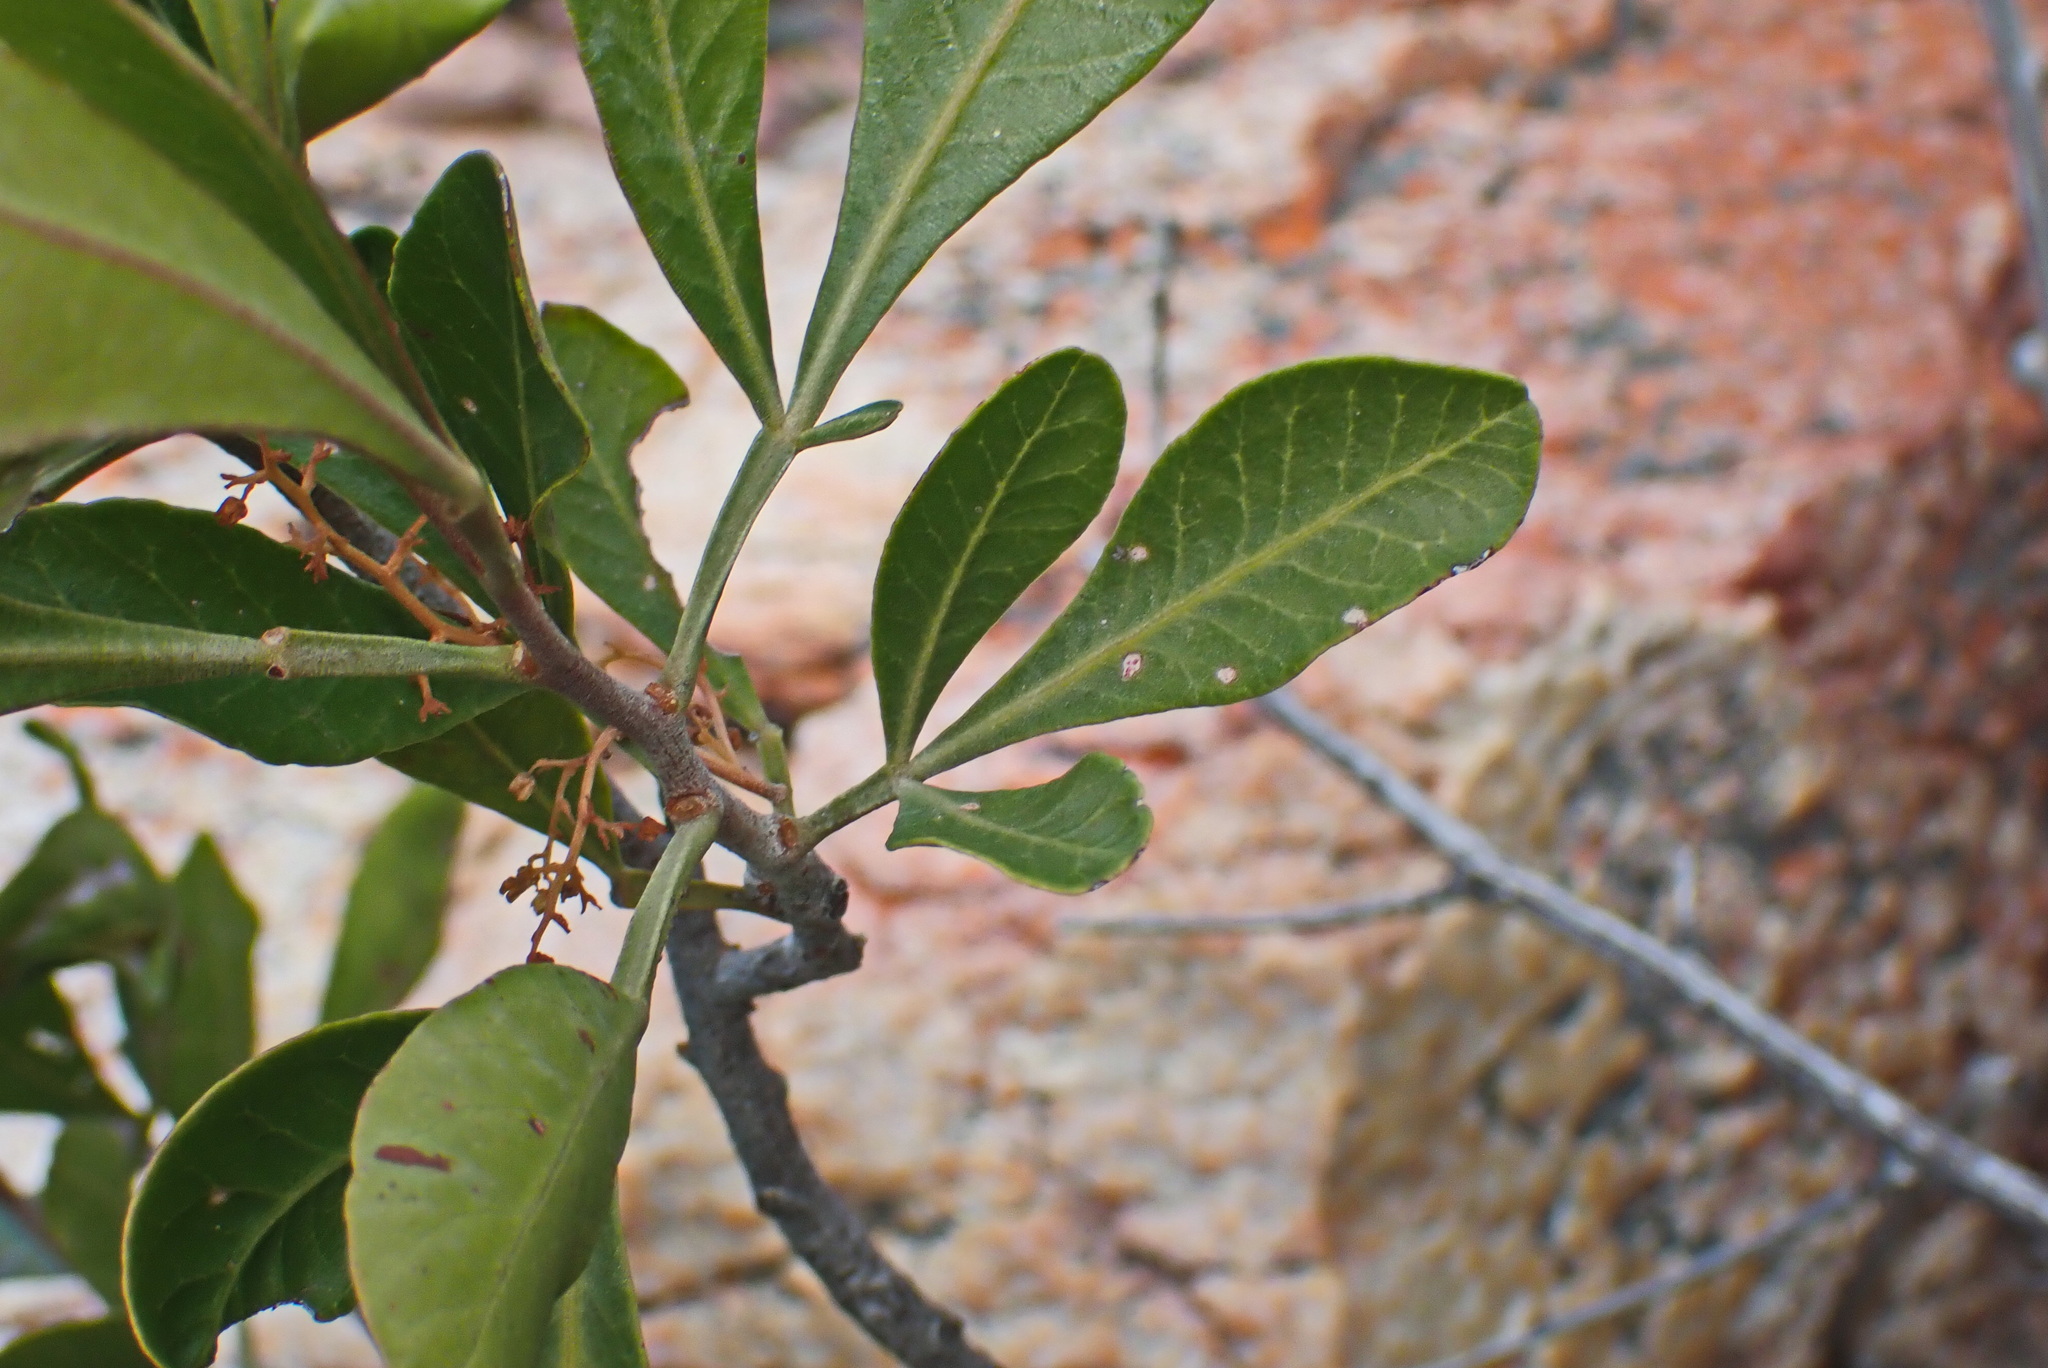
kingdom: Plantae
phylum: Tracheophyta
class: Magnoliopsida
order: Sapindales
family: Anacardiaceae
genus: Searsia
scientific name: Searsia pallens
